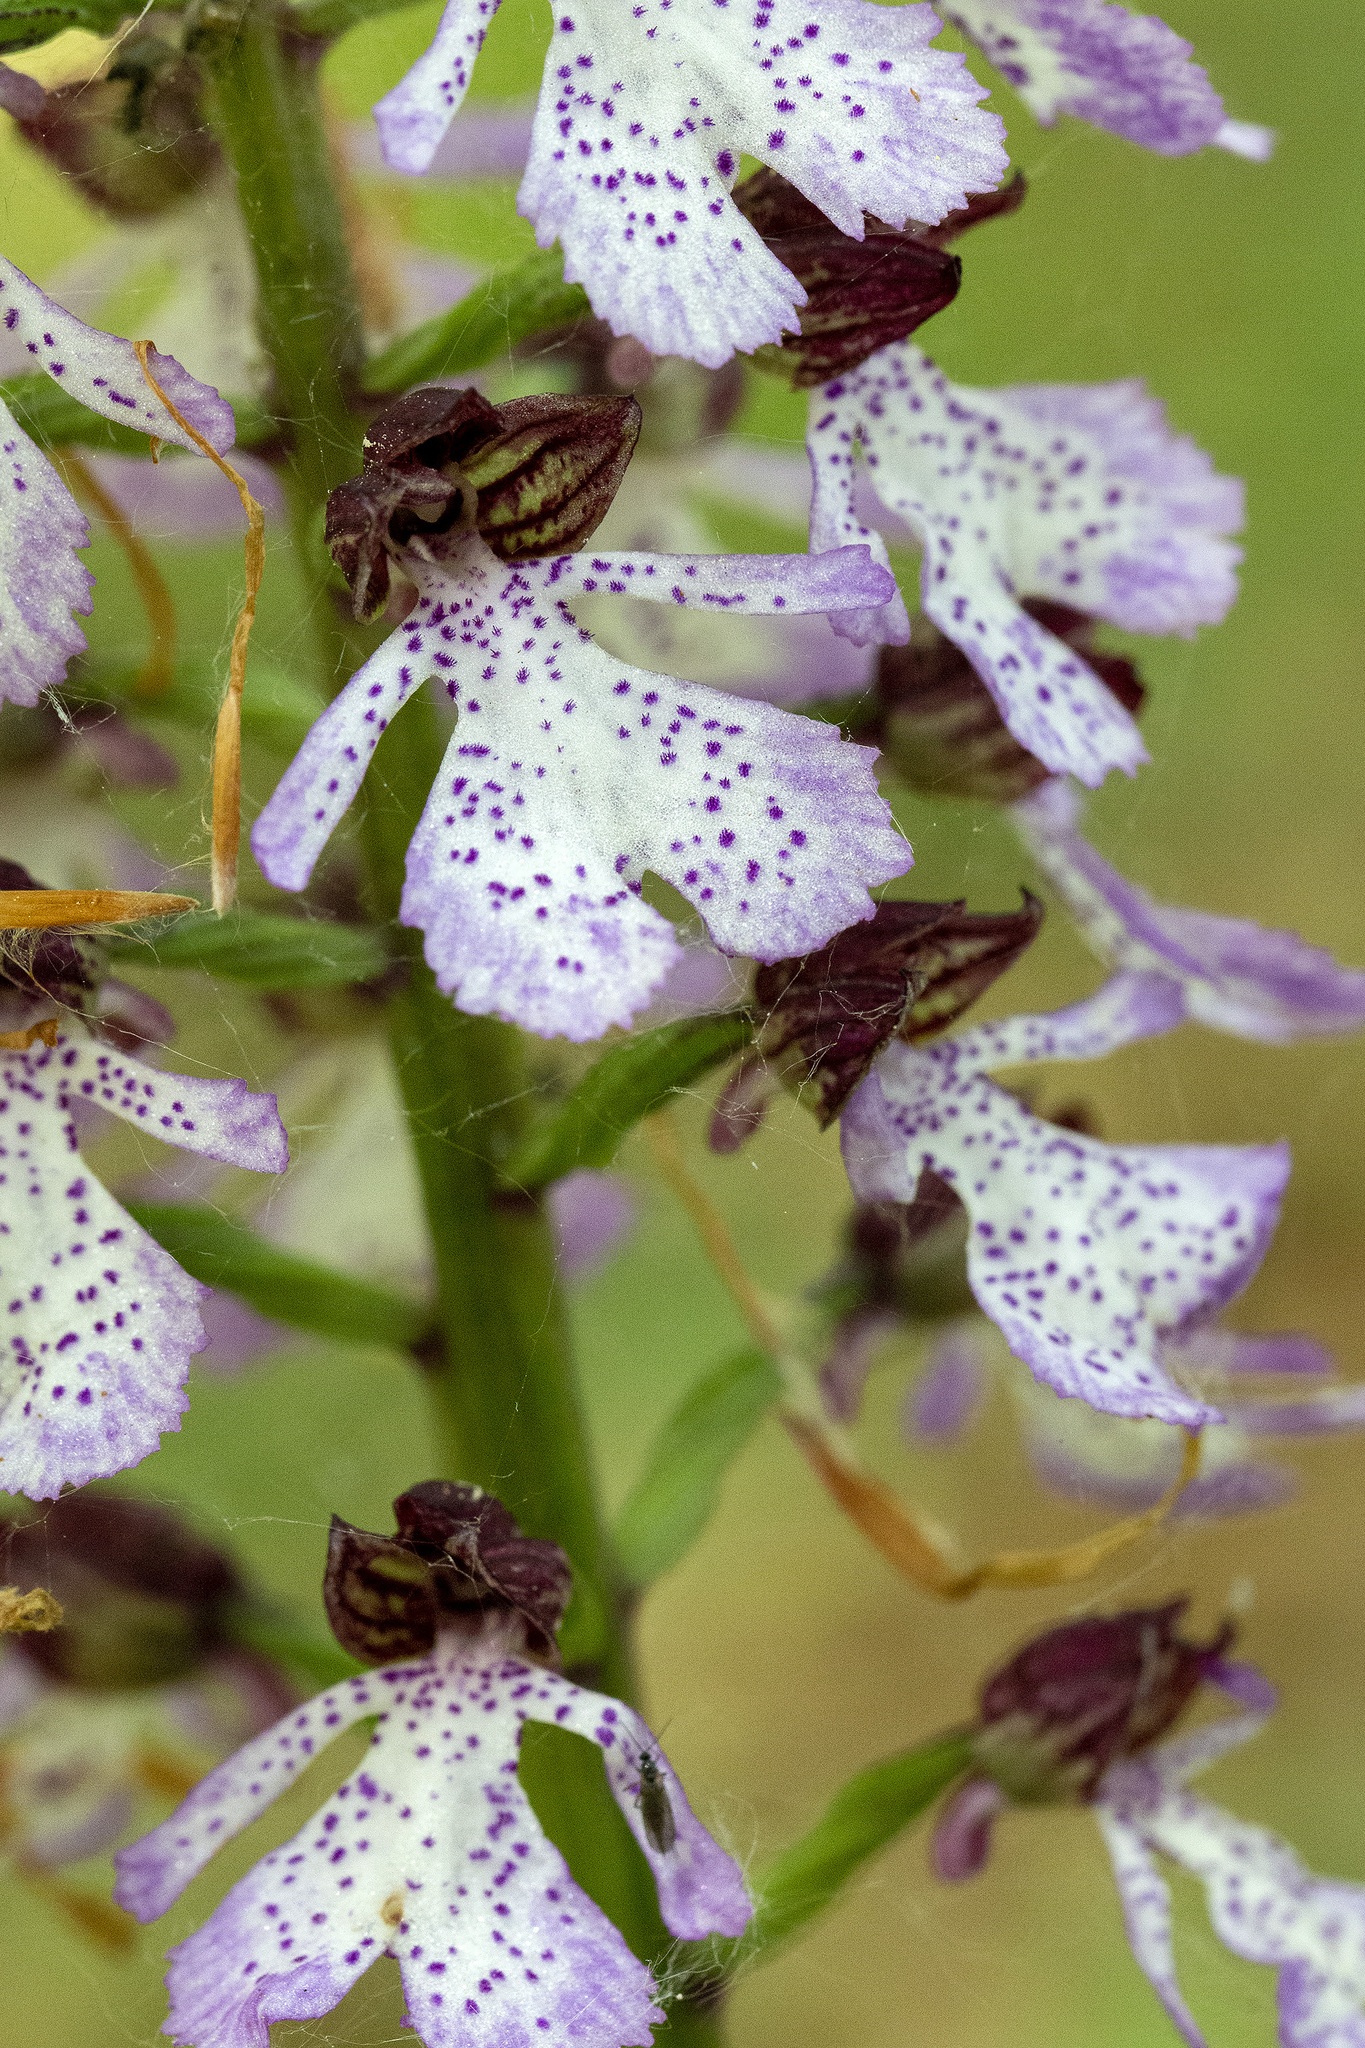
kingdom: Plantae
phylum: Tracheophyta
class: Liliopsida
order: Asparagales
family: Orchidaceae
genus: Orchis
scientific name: Orchis purpurea
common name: Lady orchid
